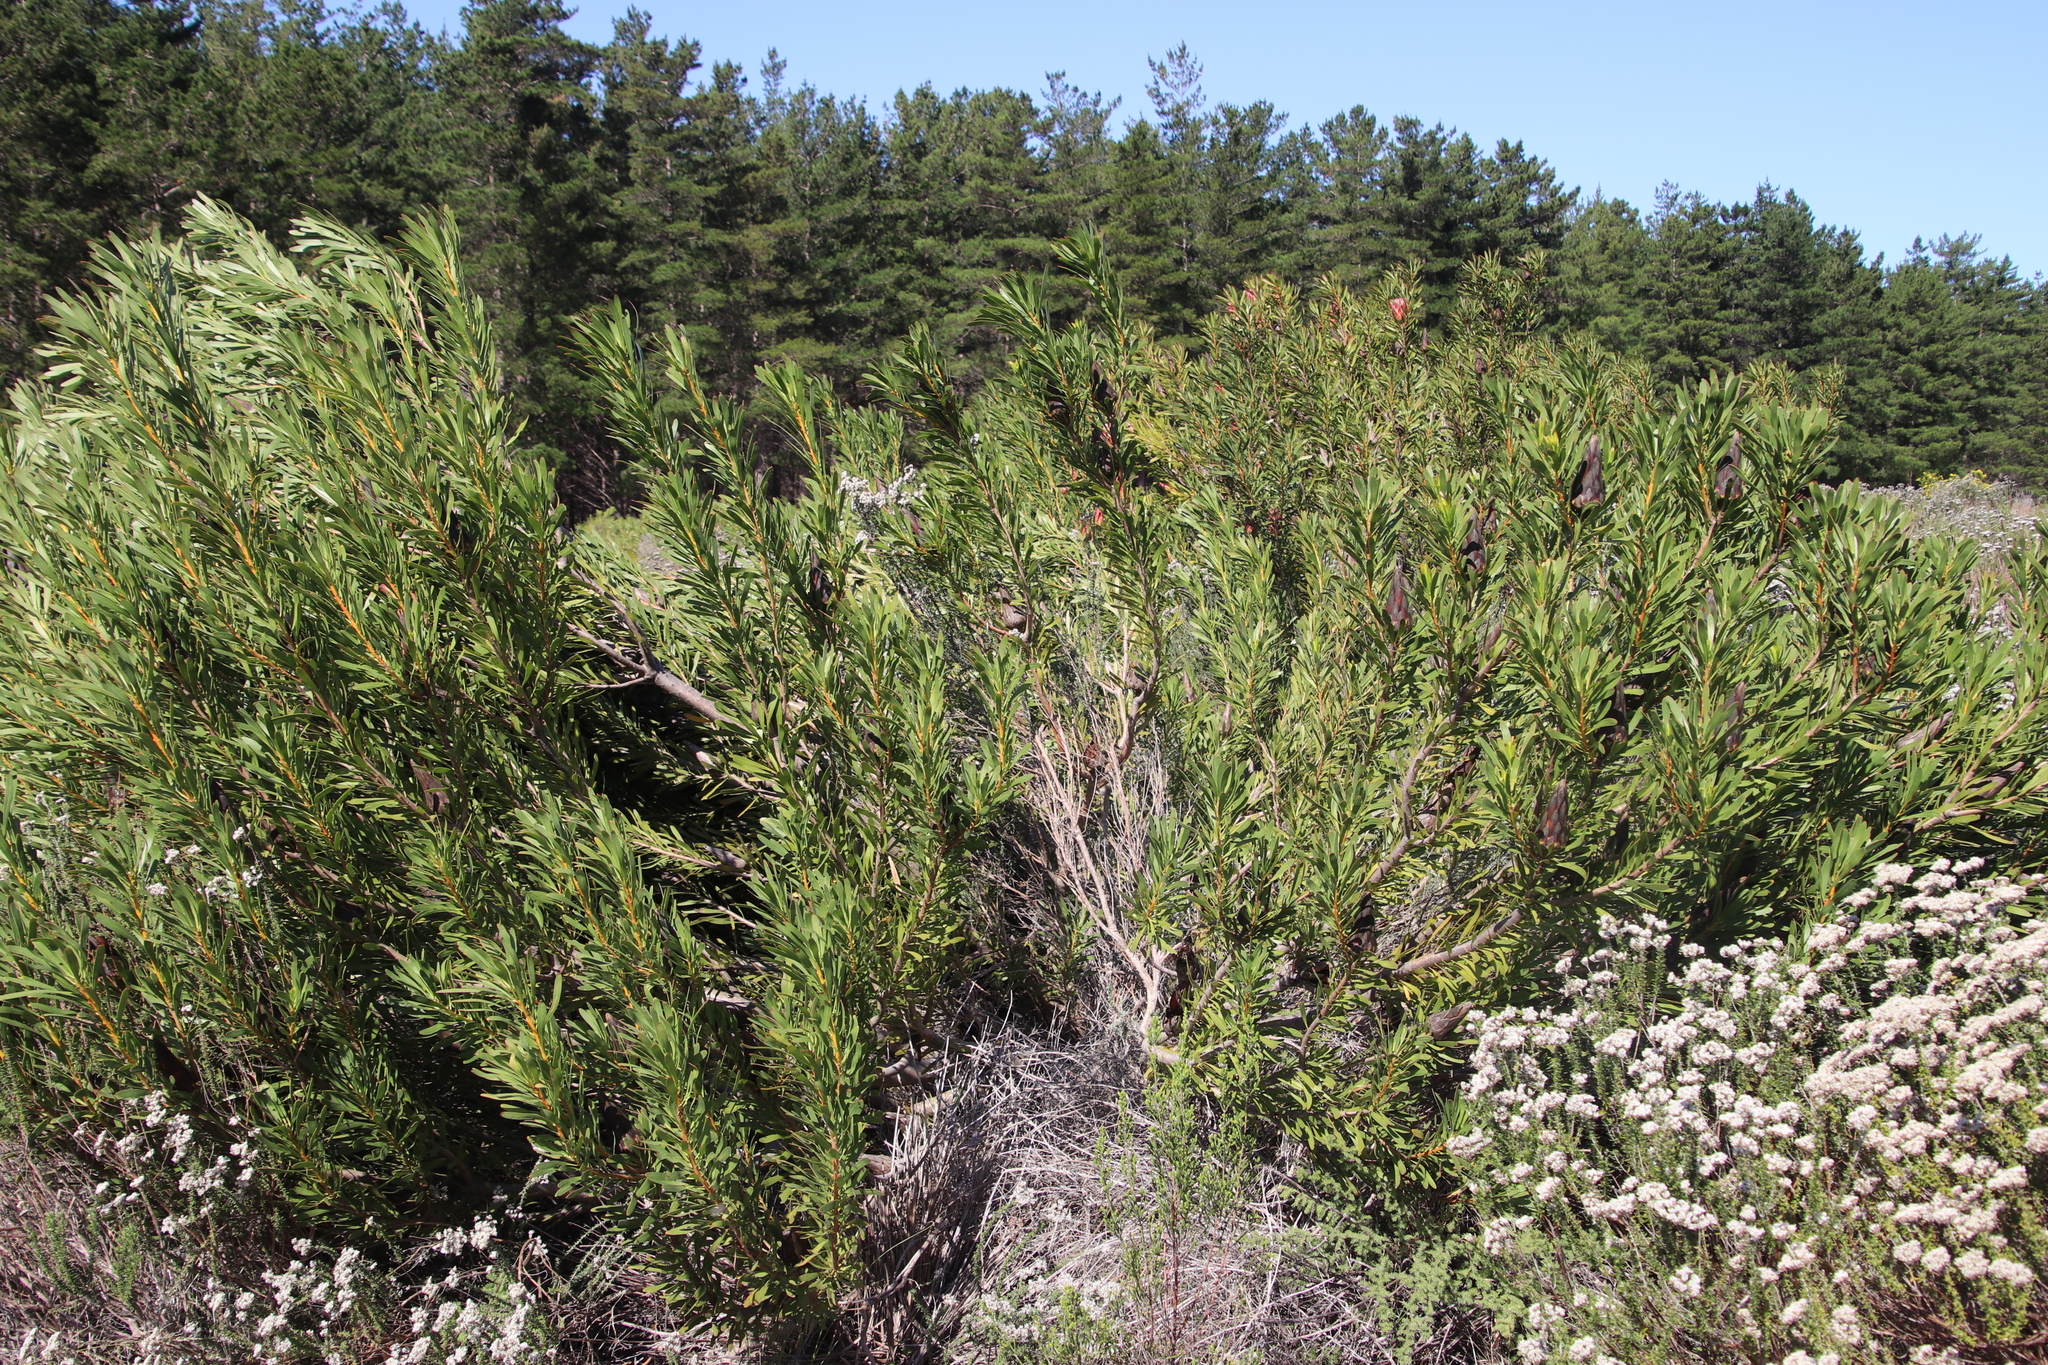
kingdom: Plantae
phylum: Tracheophyta
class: Magnoliopsida
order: Proteales
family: Proteaceae
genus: Protea
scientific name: Protea repens
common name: Sugarbush
